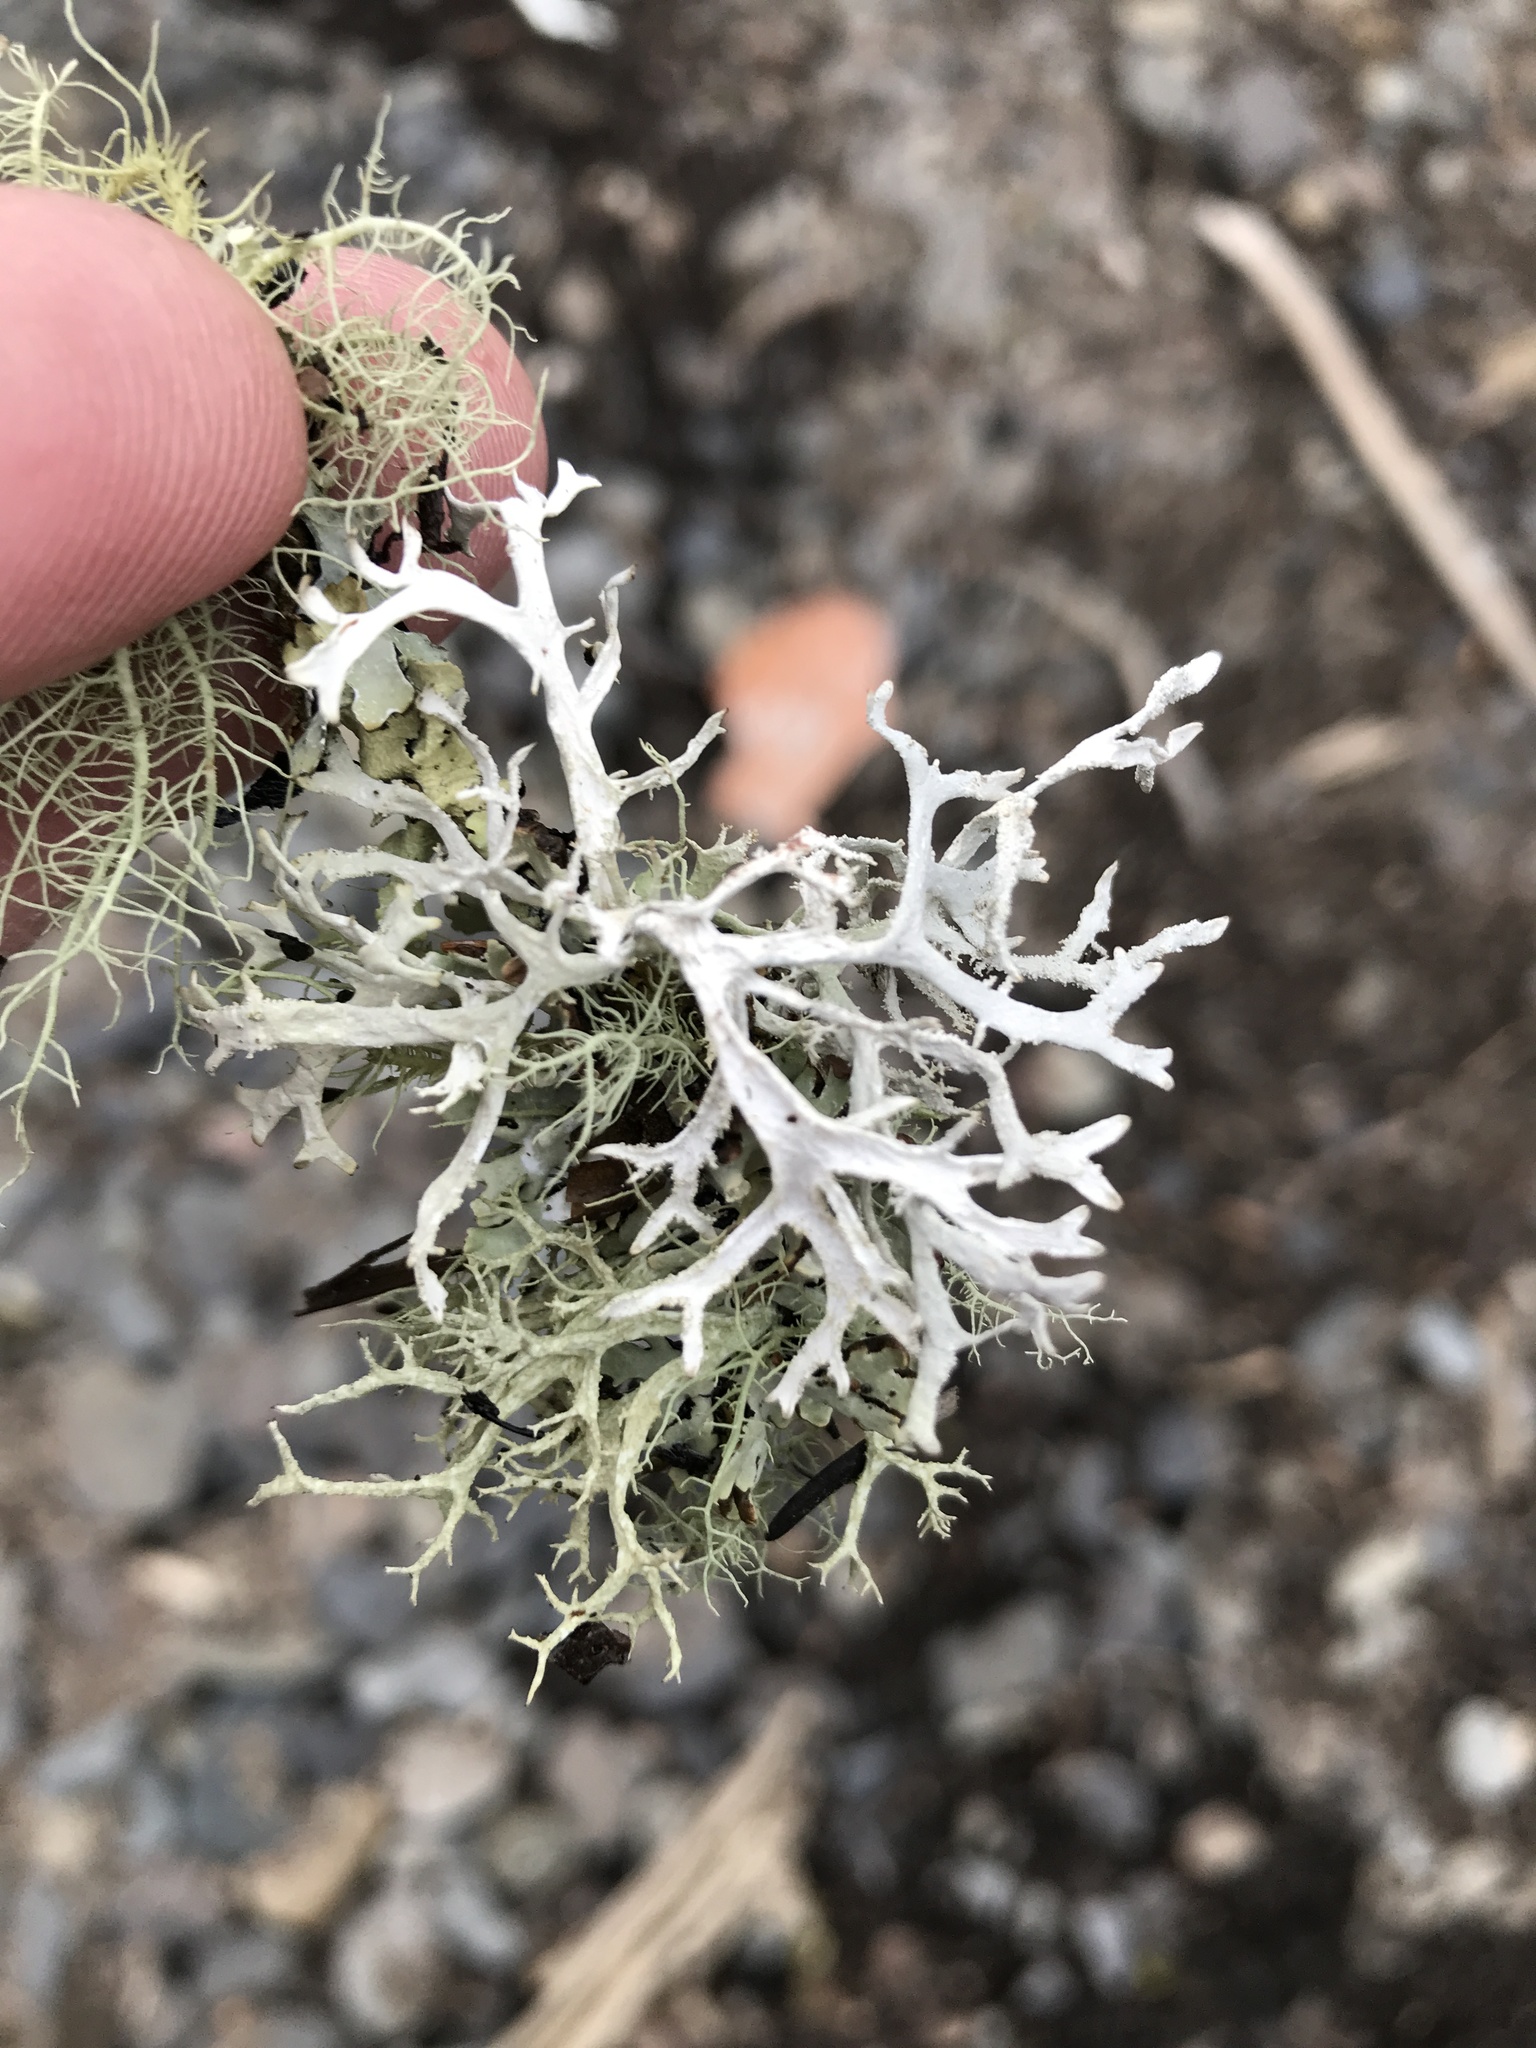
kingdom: Fungi
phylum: Ascomycota
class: Lecanoromycetes
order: Lecanorales
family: Parmeliaceae
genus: Pseudevernia
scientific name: Pseudevernia consocians
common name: Common antler lichen
